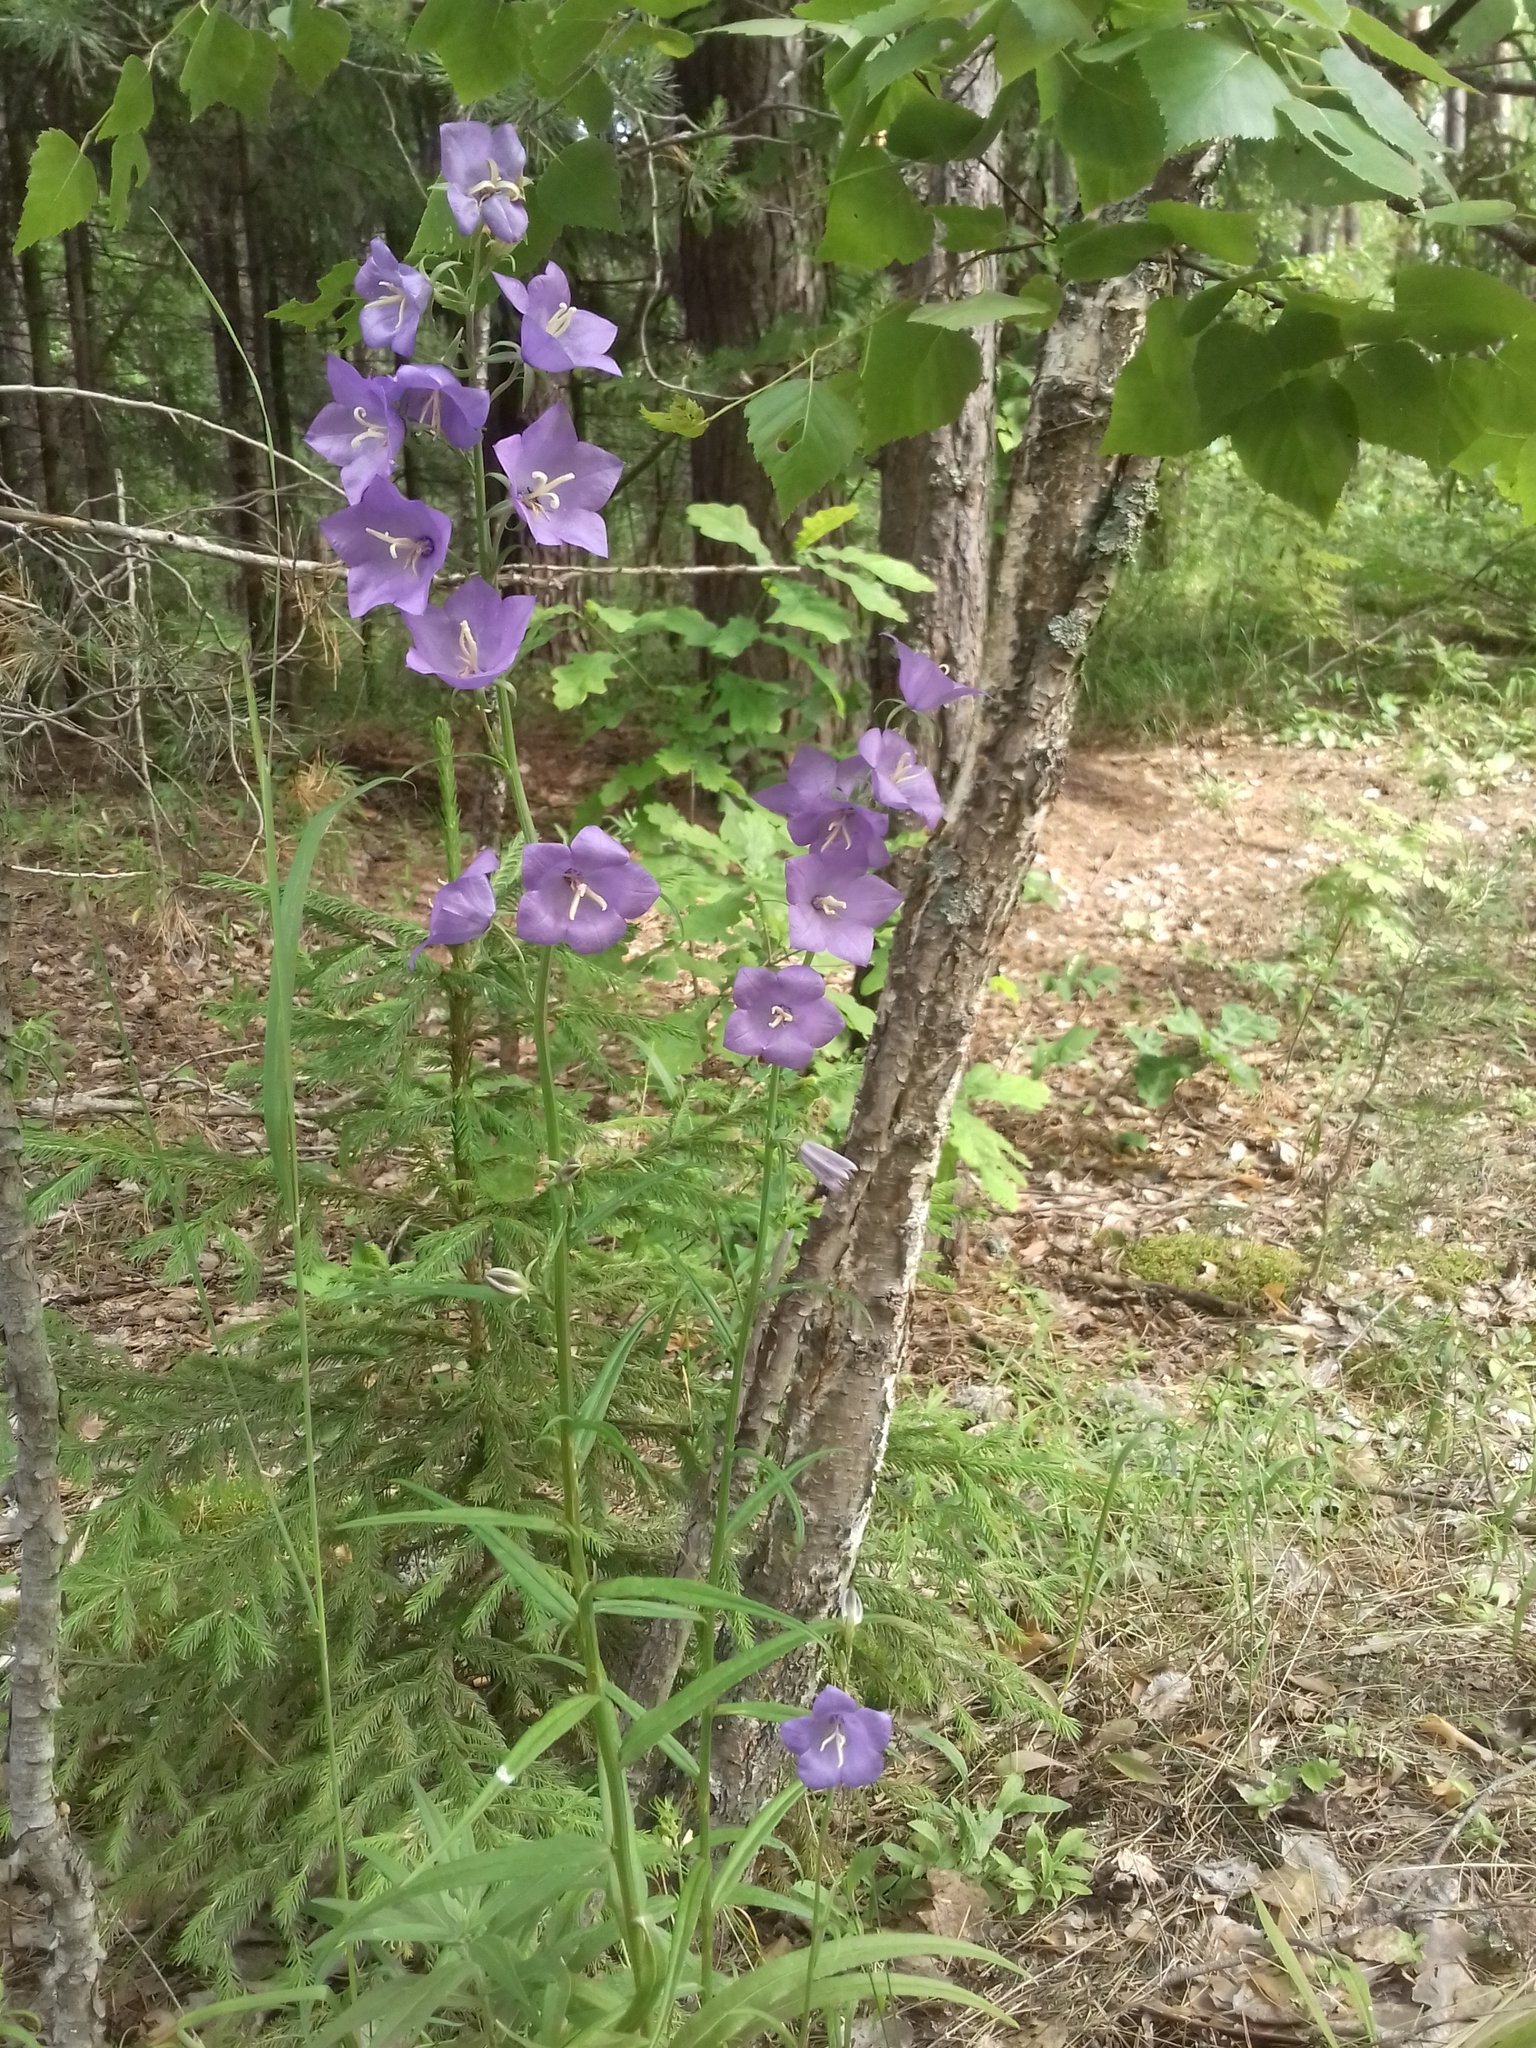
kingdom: Plantae
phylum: Tracheophyta
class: Magnoliopsida
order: Asterales
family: Campanulaceae
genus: Campanula
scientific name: Campanula persicifolia
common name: Peach-leaved bellflower
